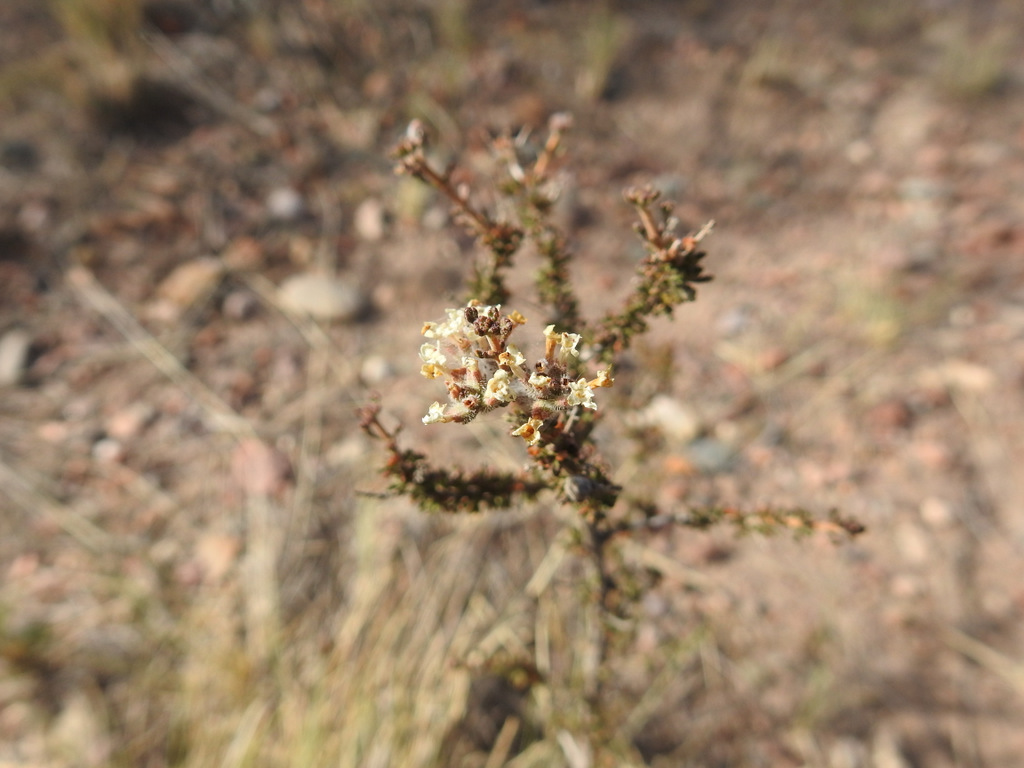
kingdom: Plantae
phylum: Tracheophyta
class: Magnoliopsida
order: Lamiales
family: Verbenaceae
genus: Acantholippia
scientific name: Acantholippia seriphioides
